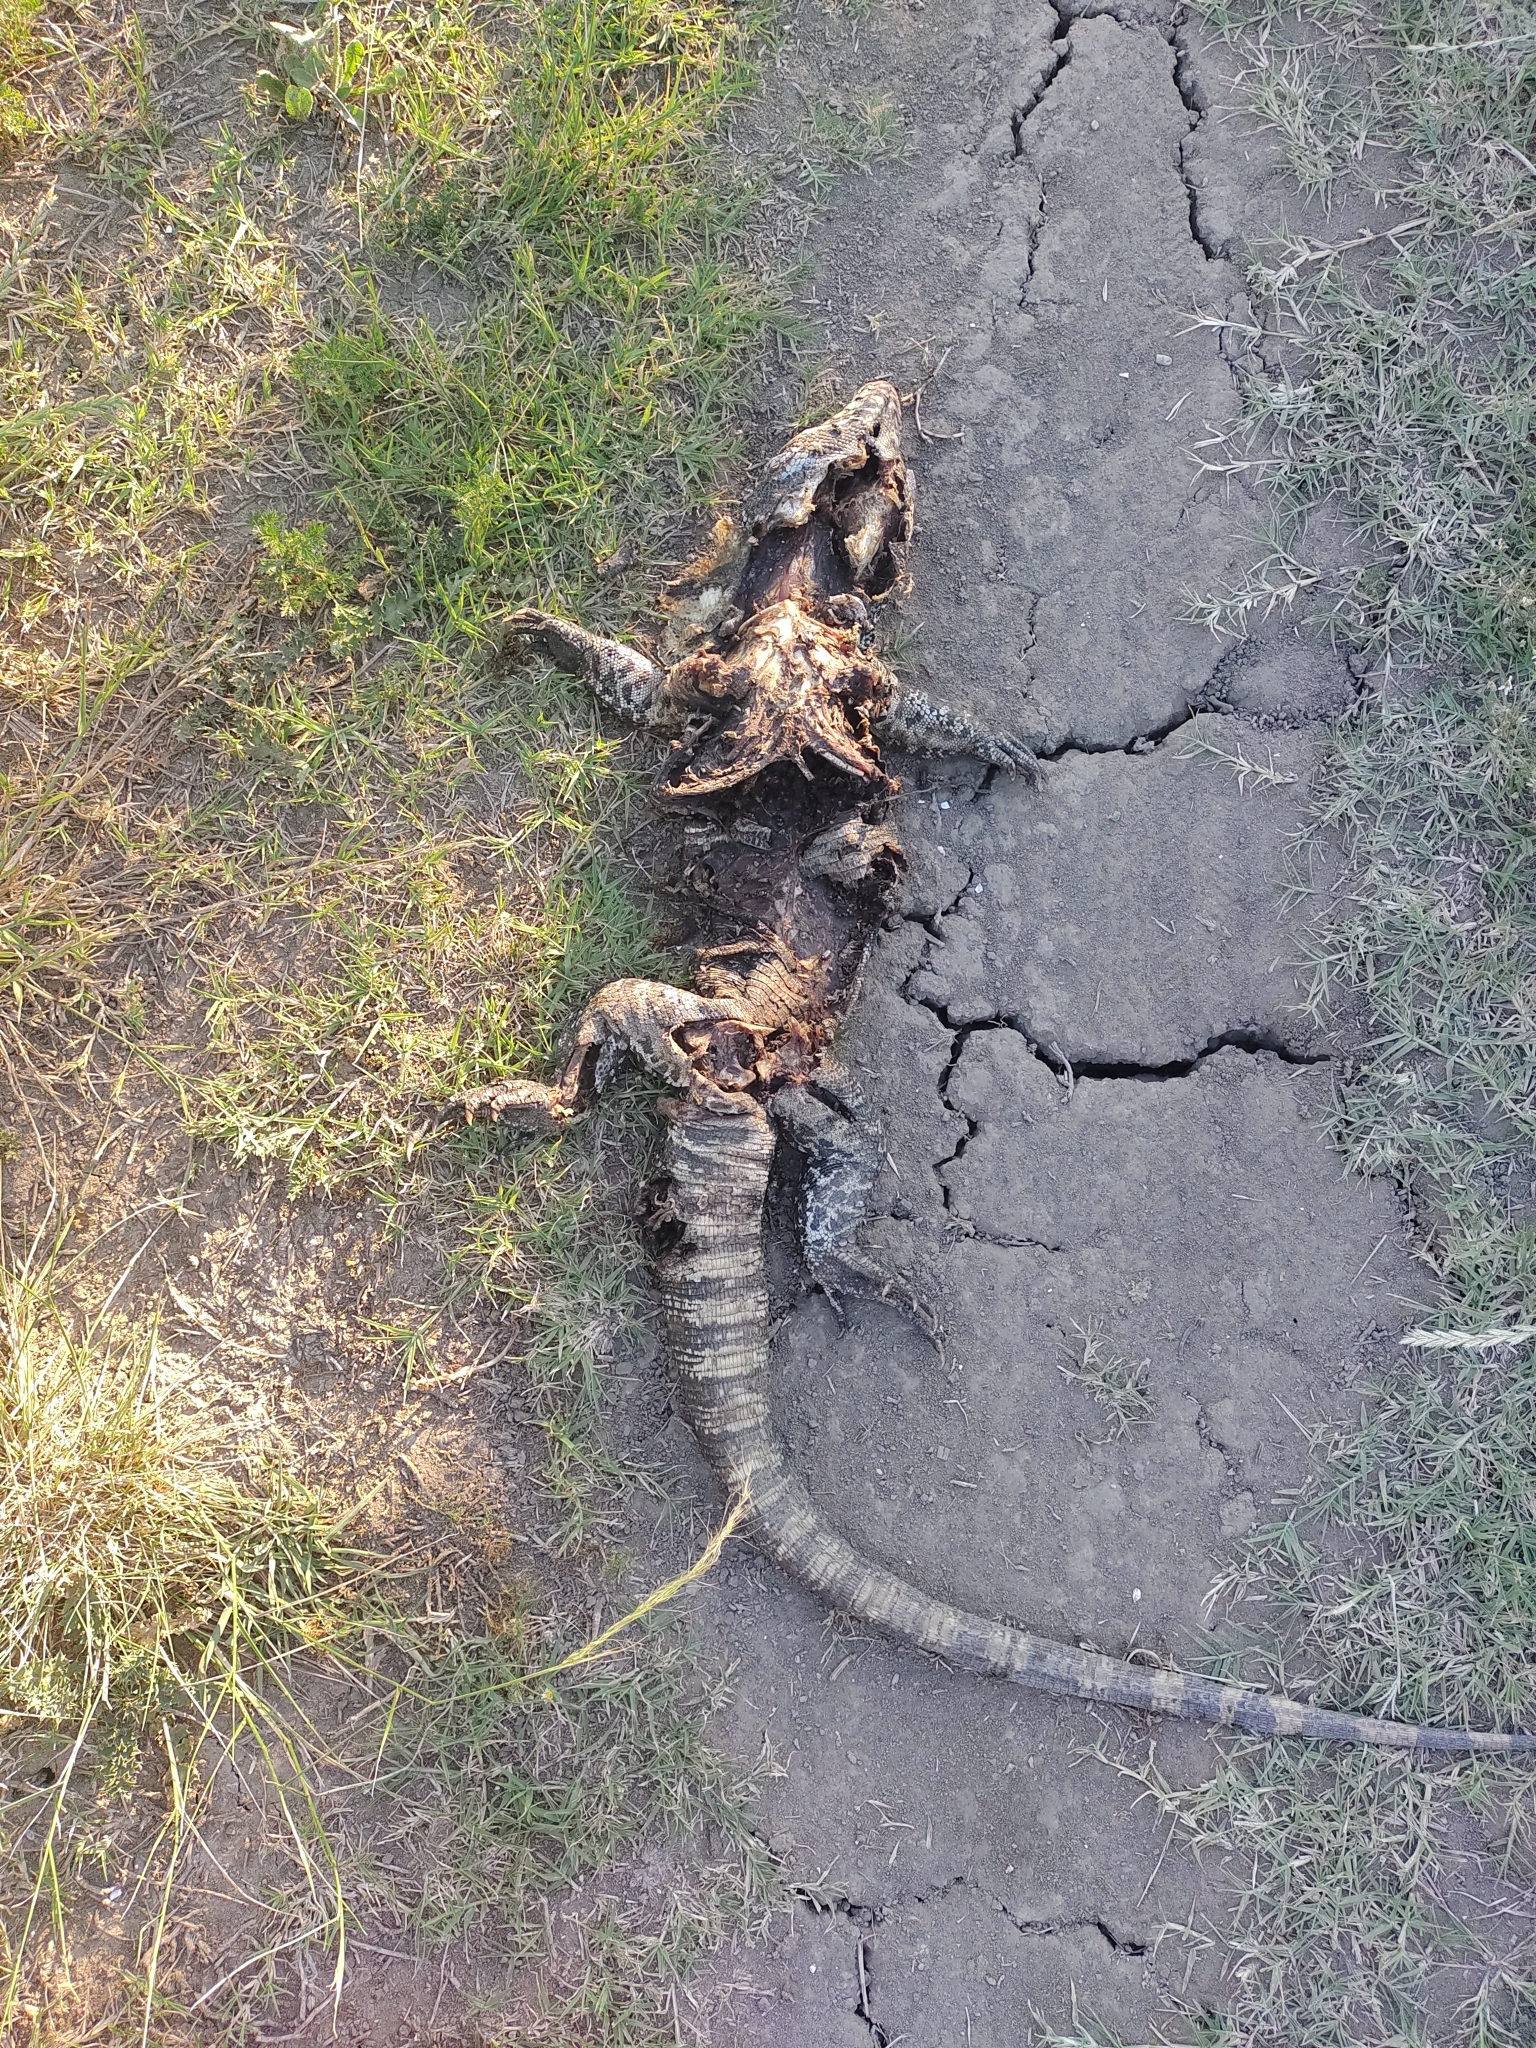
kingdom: Animalia
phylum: Chordata
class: Squamata
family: Teiidae
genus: Salvator
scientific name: Salvator merianae
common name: Argentine black and white tegu
